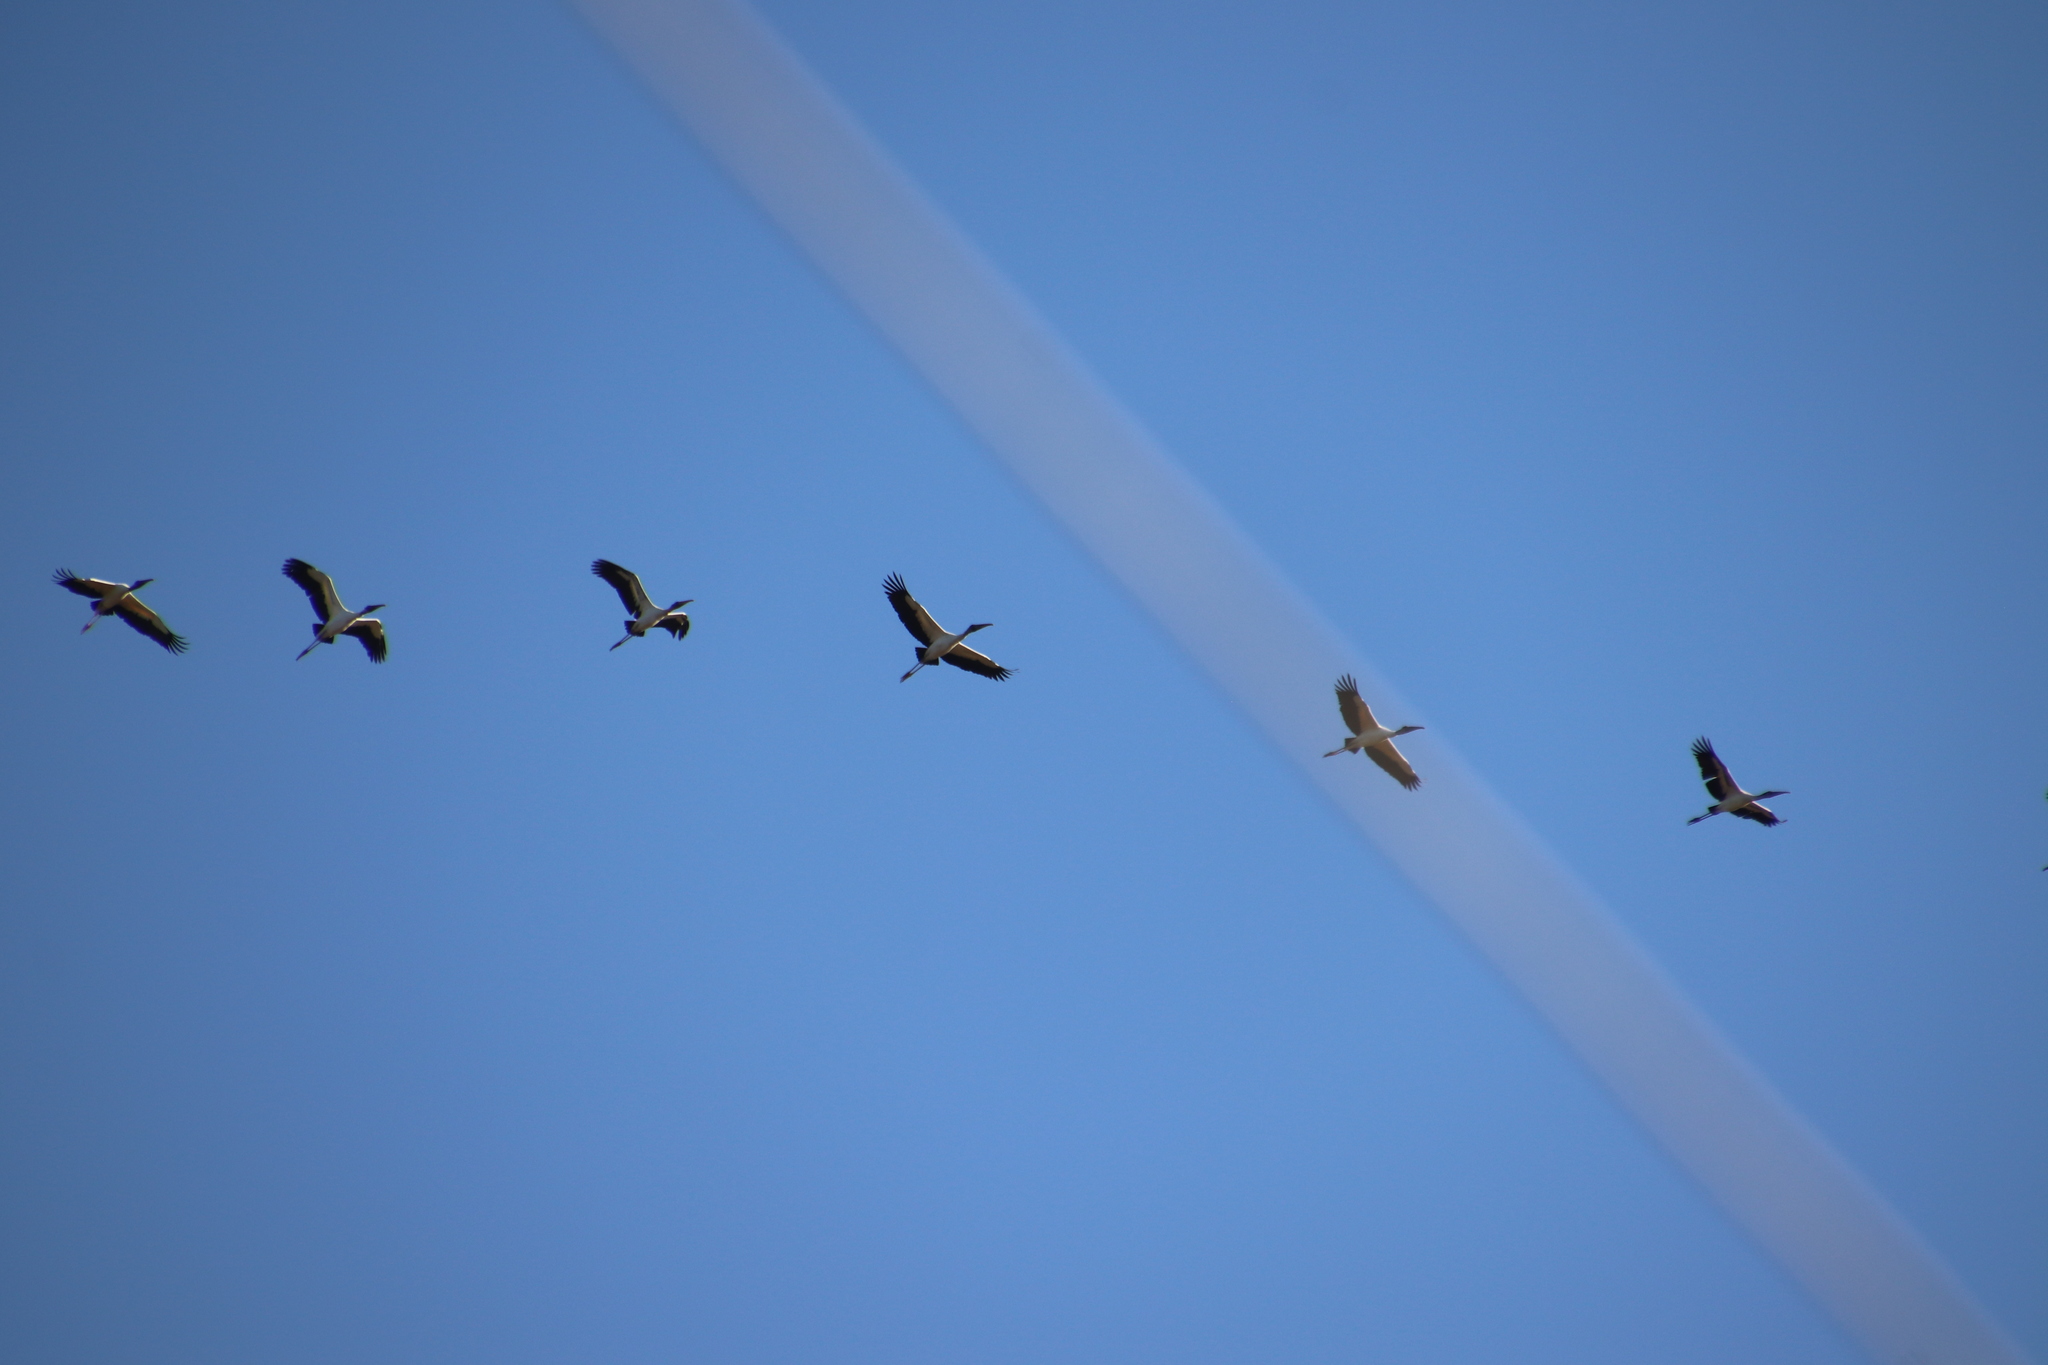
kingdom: Animalia
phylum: Chordata
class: Aves
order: Ciconiiformes
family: Ciconiidae
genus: Mycteria
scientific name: Mycteria americana
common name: Wood stork
